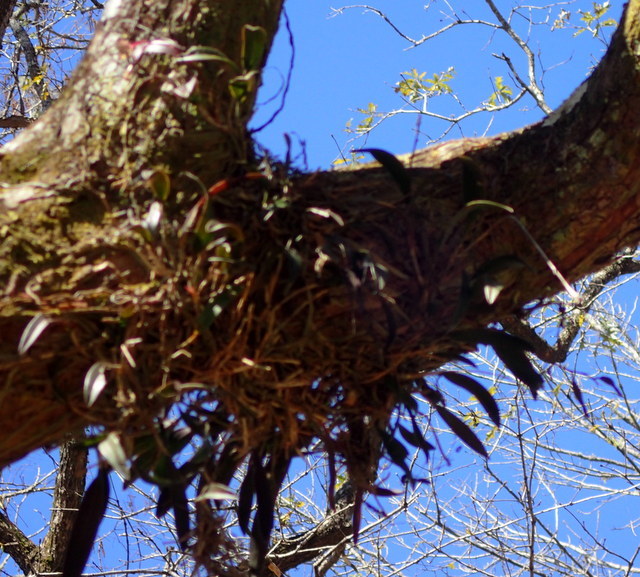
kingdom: Plantae
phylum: Tracheophyta
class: Liliopsida
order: Asparagales
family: Orchidaceae
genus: Epidendrum
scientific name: Epidendrum conopseum
